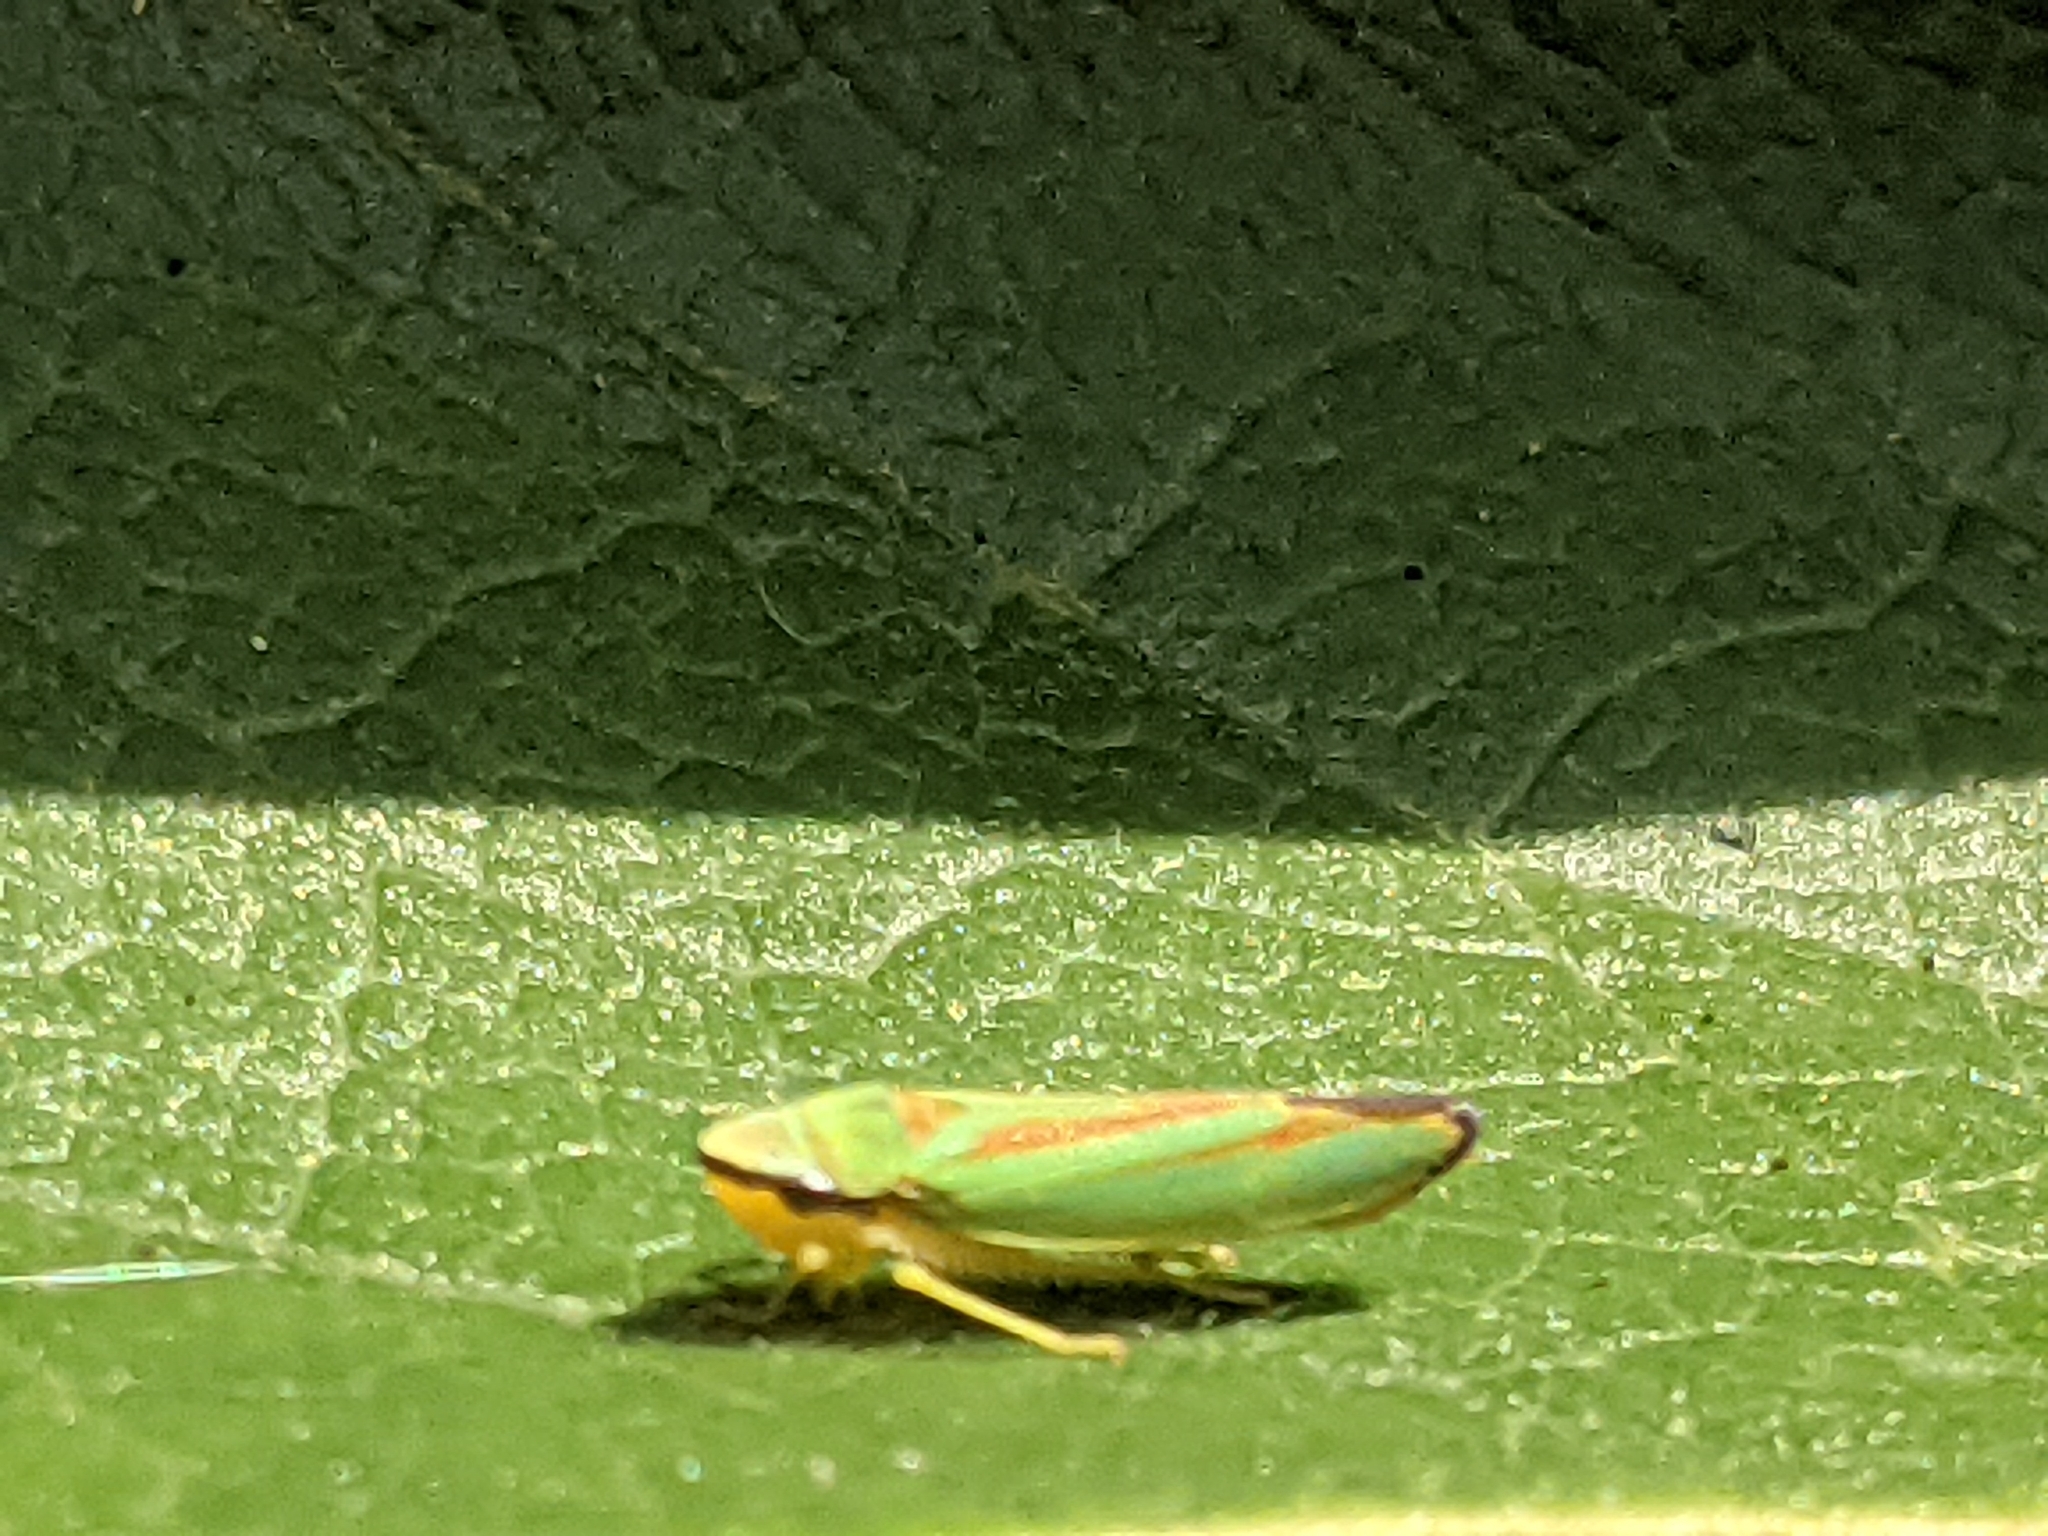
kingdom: Animalia
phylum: Arthropoda
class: Insecta
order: Hemiptera
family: Cicadellidae
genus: Graphocephala
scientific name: Graphocephala fennahi
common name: Rhododendron leafhopper
